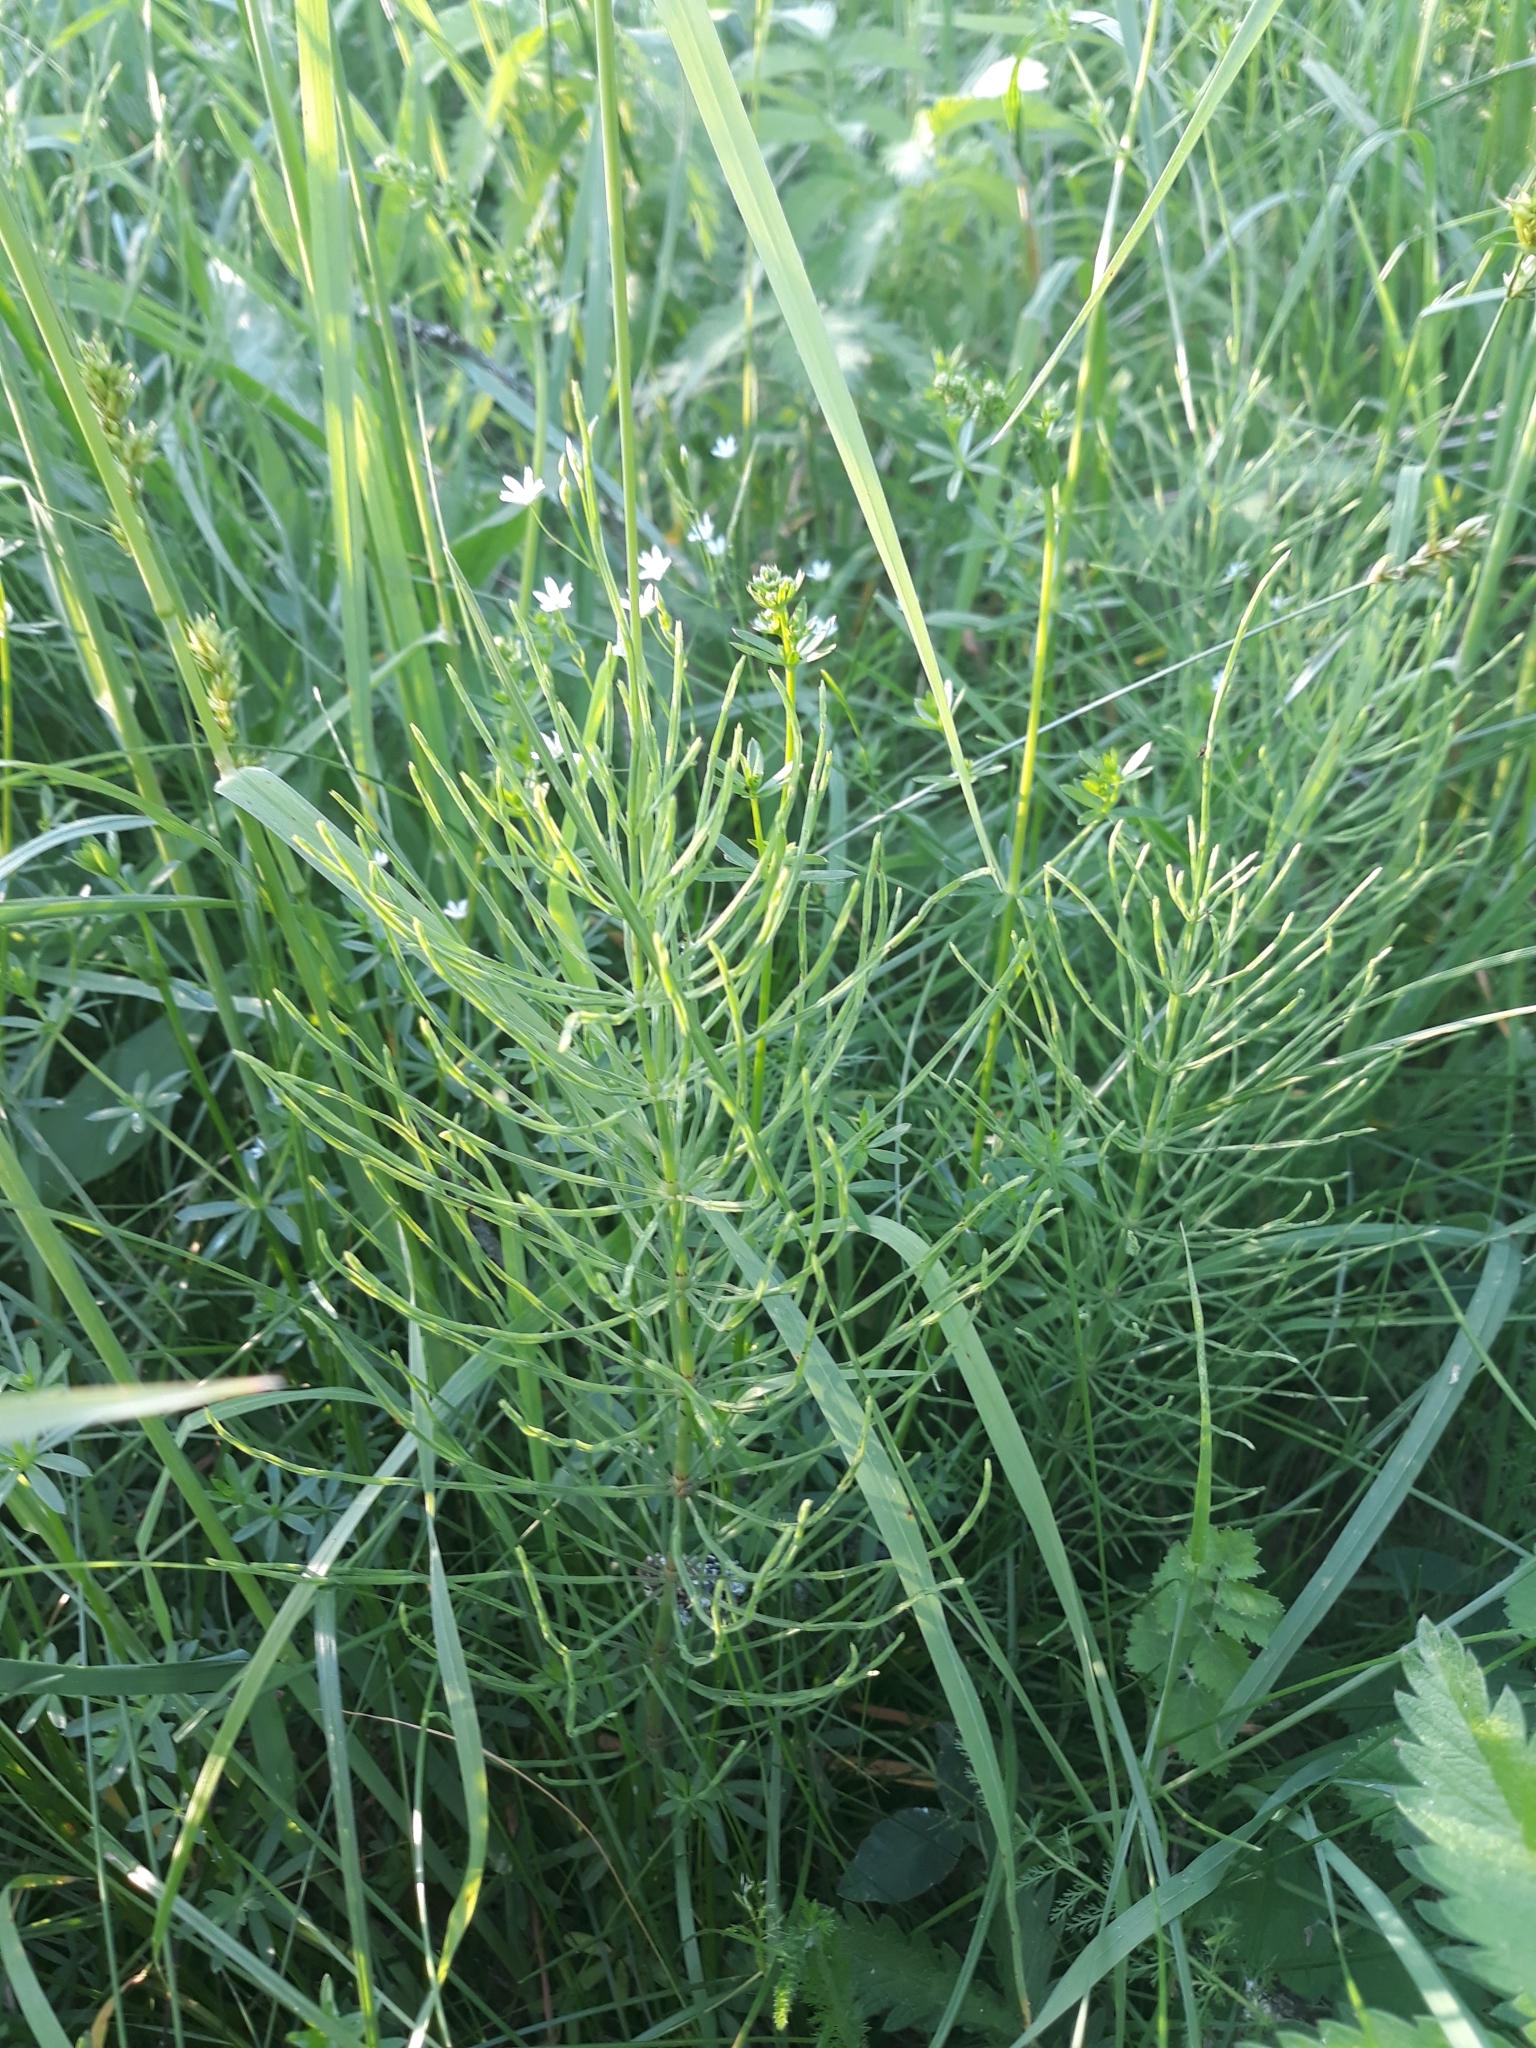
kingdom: Plantae
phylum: Tracheophyta
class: Polypodiopsida
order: Equisetales
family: Equisetaceae
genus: Equisetum
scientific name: Equisetum arvense
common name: Field horsetail
